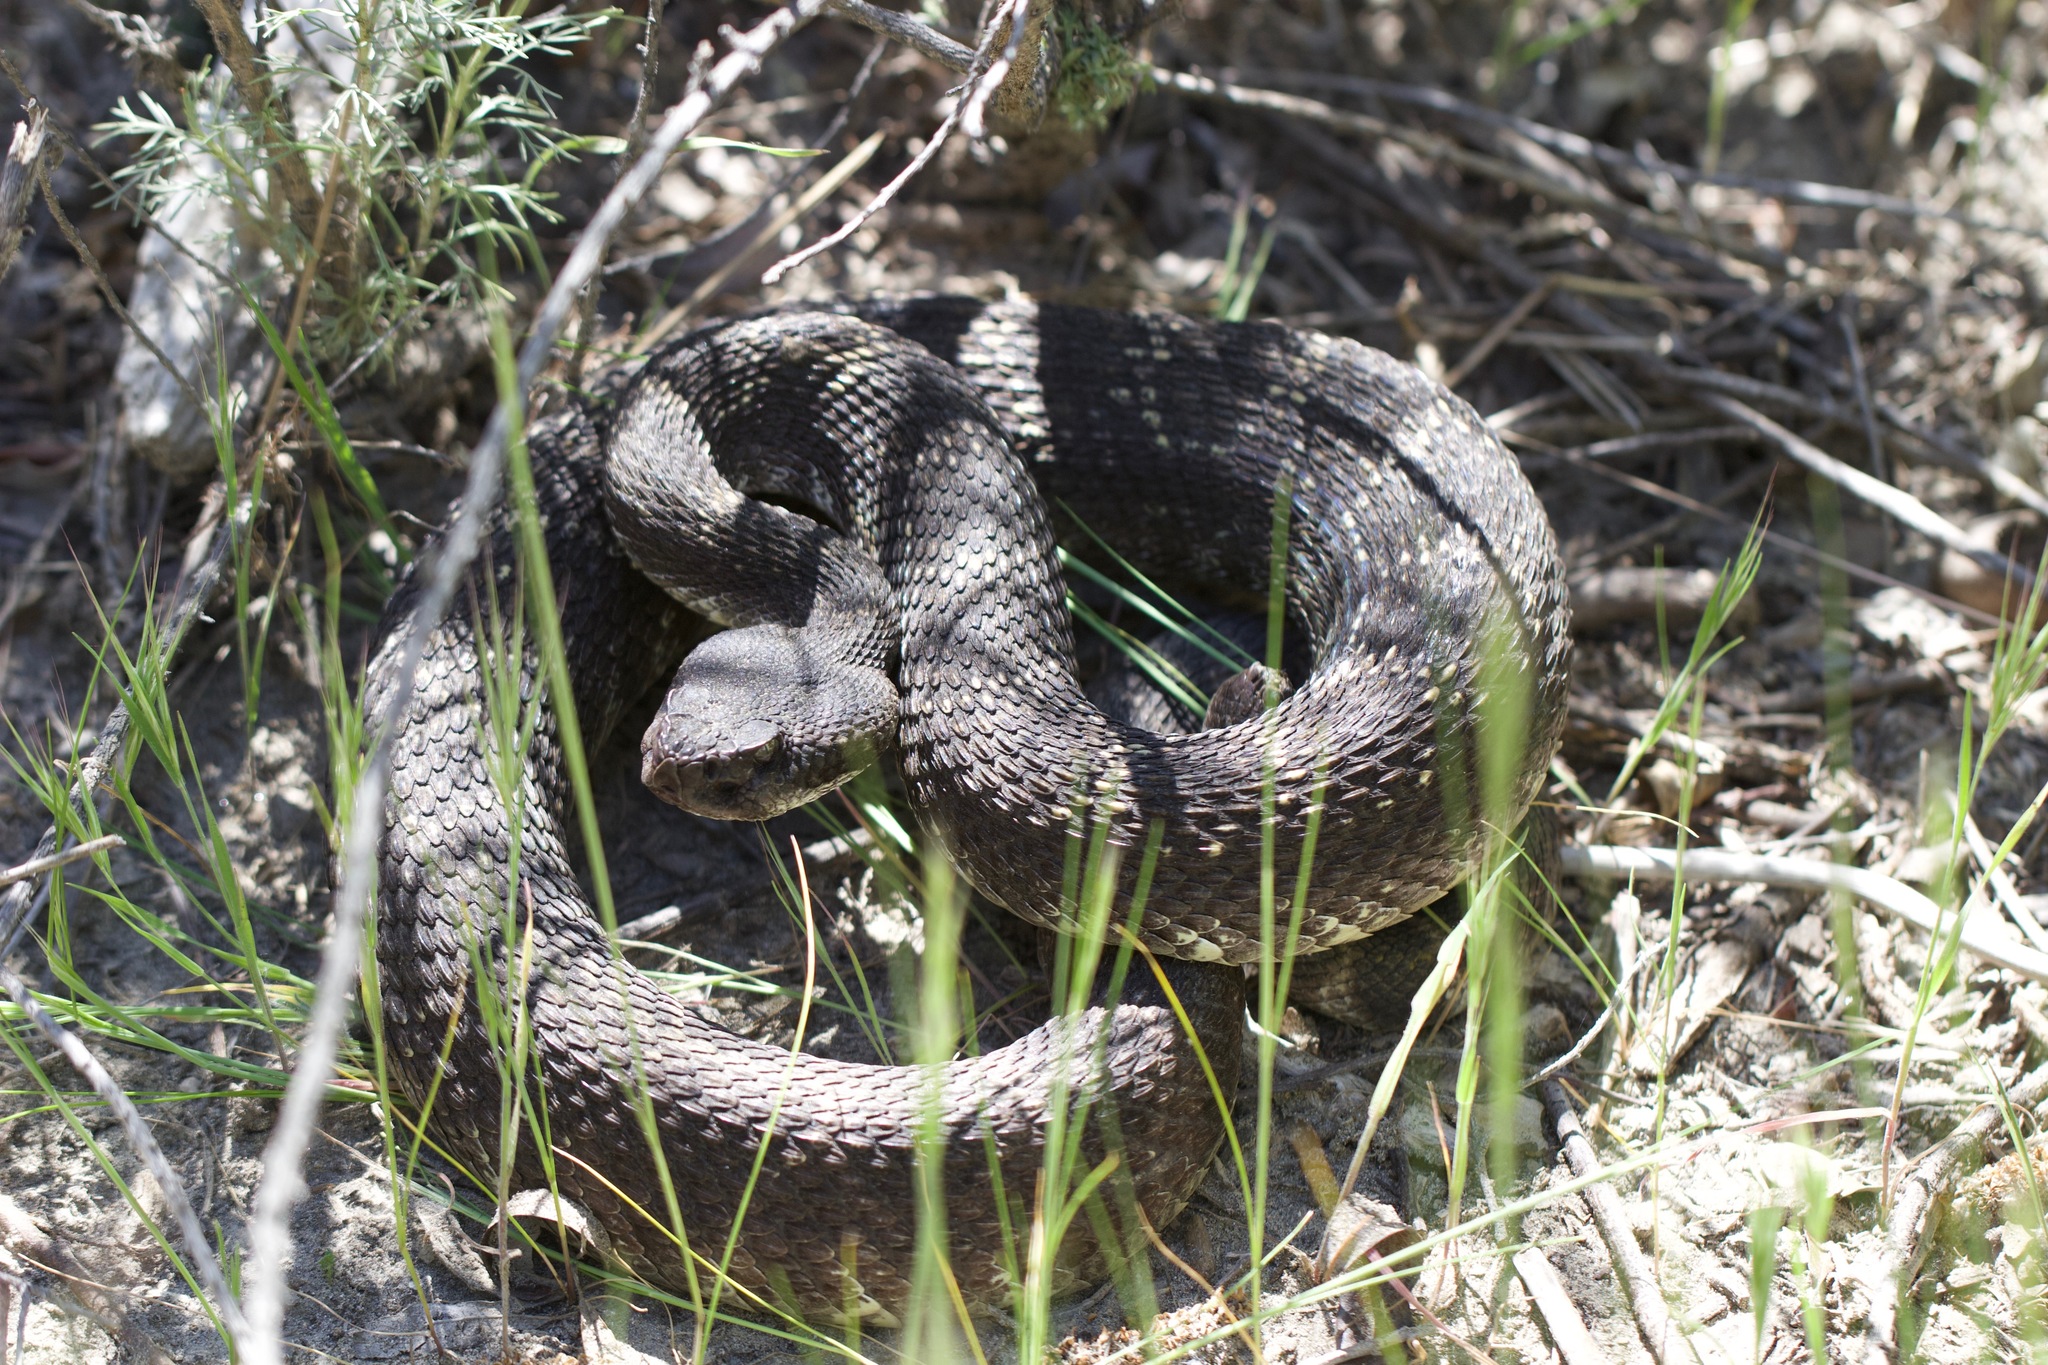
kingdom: Animalia
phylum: Chordata
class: Squamata
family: Viperidae
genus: Crotalus
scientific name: Crotalus oreganus
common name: Abyssus
